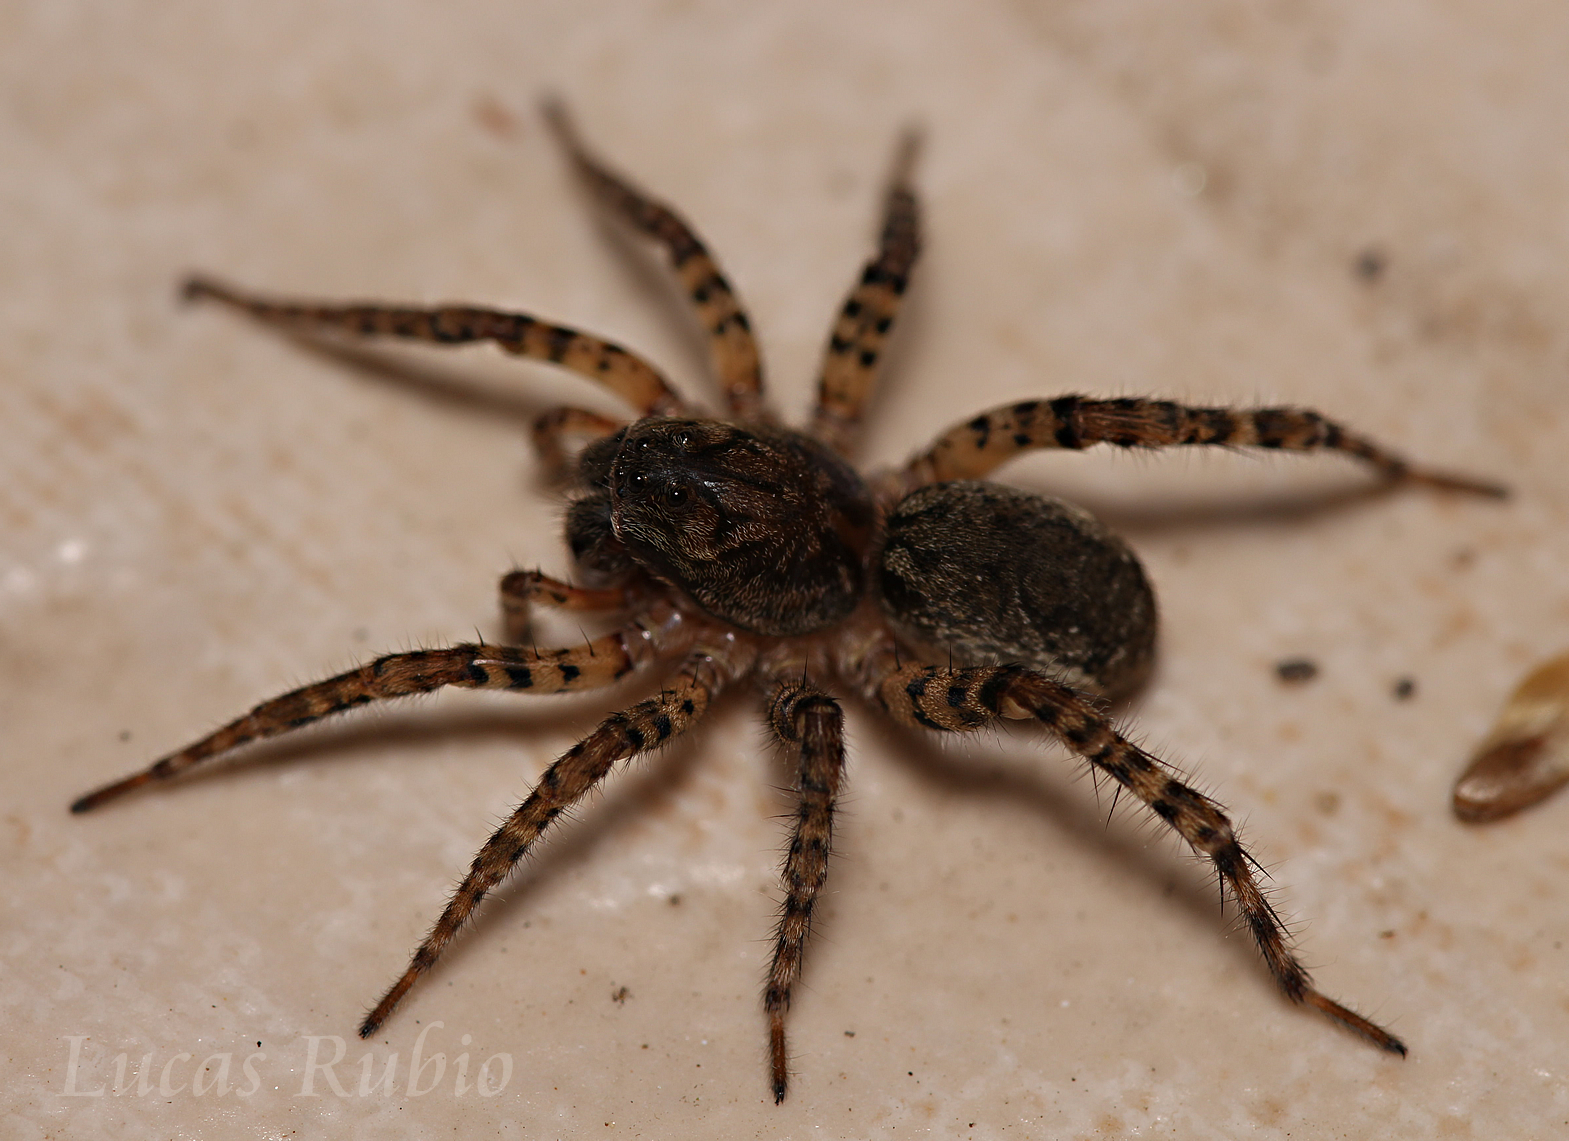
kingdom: Animalia
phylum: Arthropoda
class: Arachnida
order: Araneae
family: Lycosidae
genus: Paratrochosina
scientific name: Paratrochosina amica
